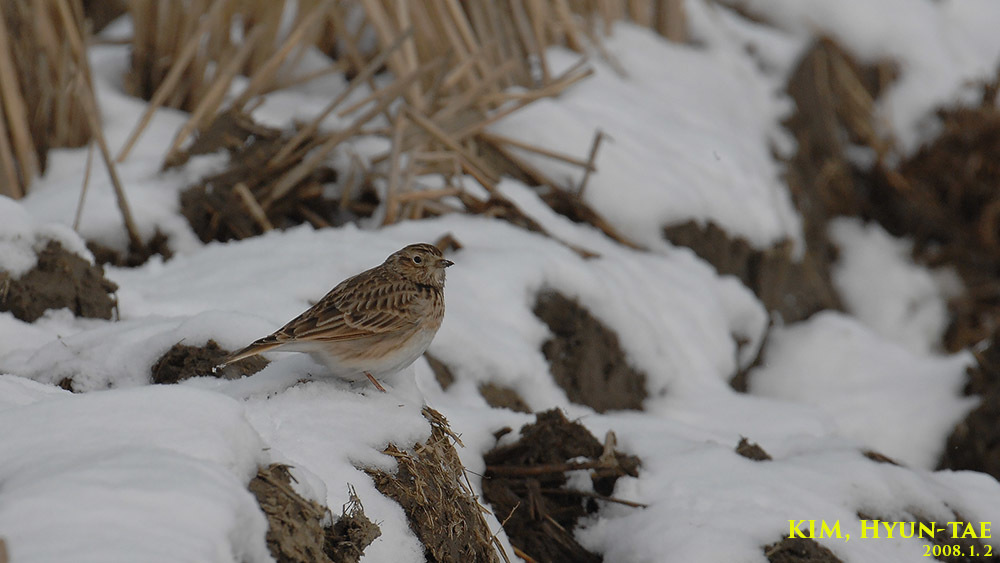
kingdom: Animalia
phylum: Chordata
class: Aves
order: Passeriformes
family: Alaudidae
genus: Alauda
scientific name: Alauda arvensis
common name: Eurasian skylark
